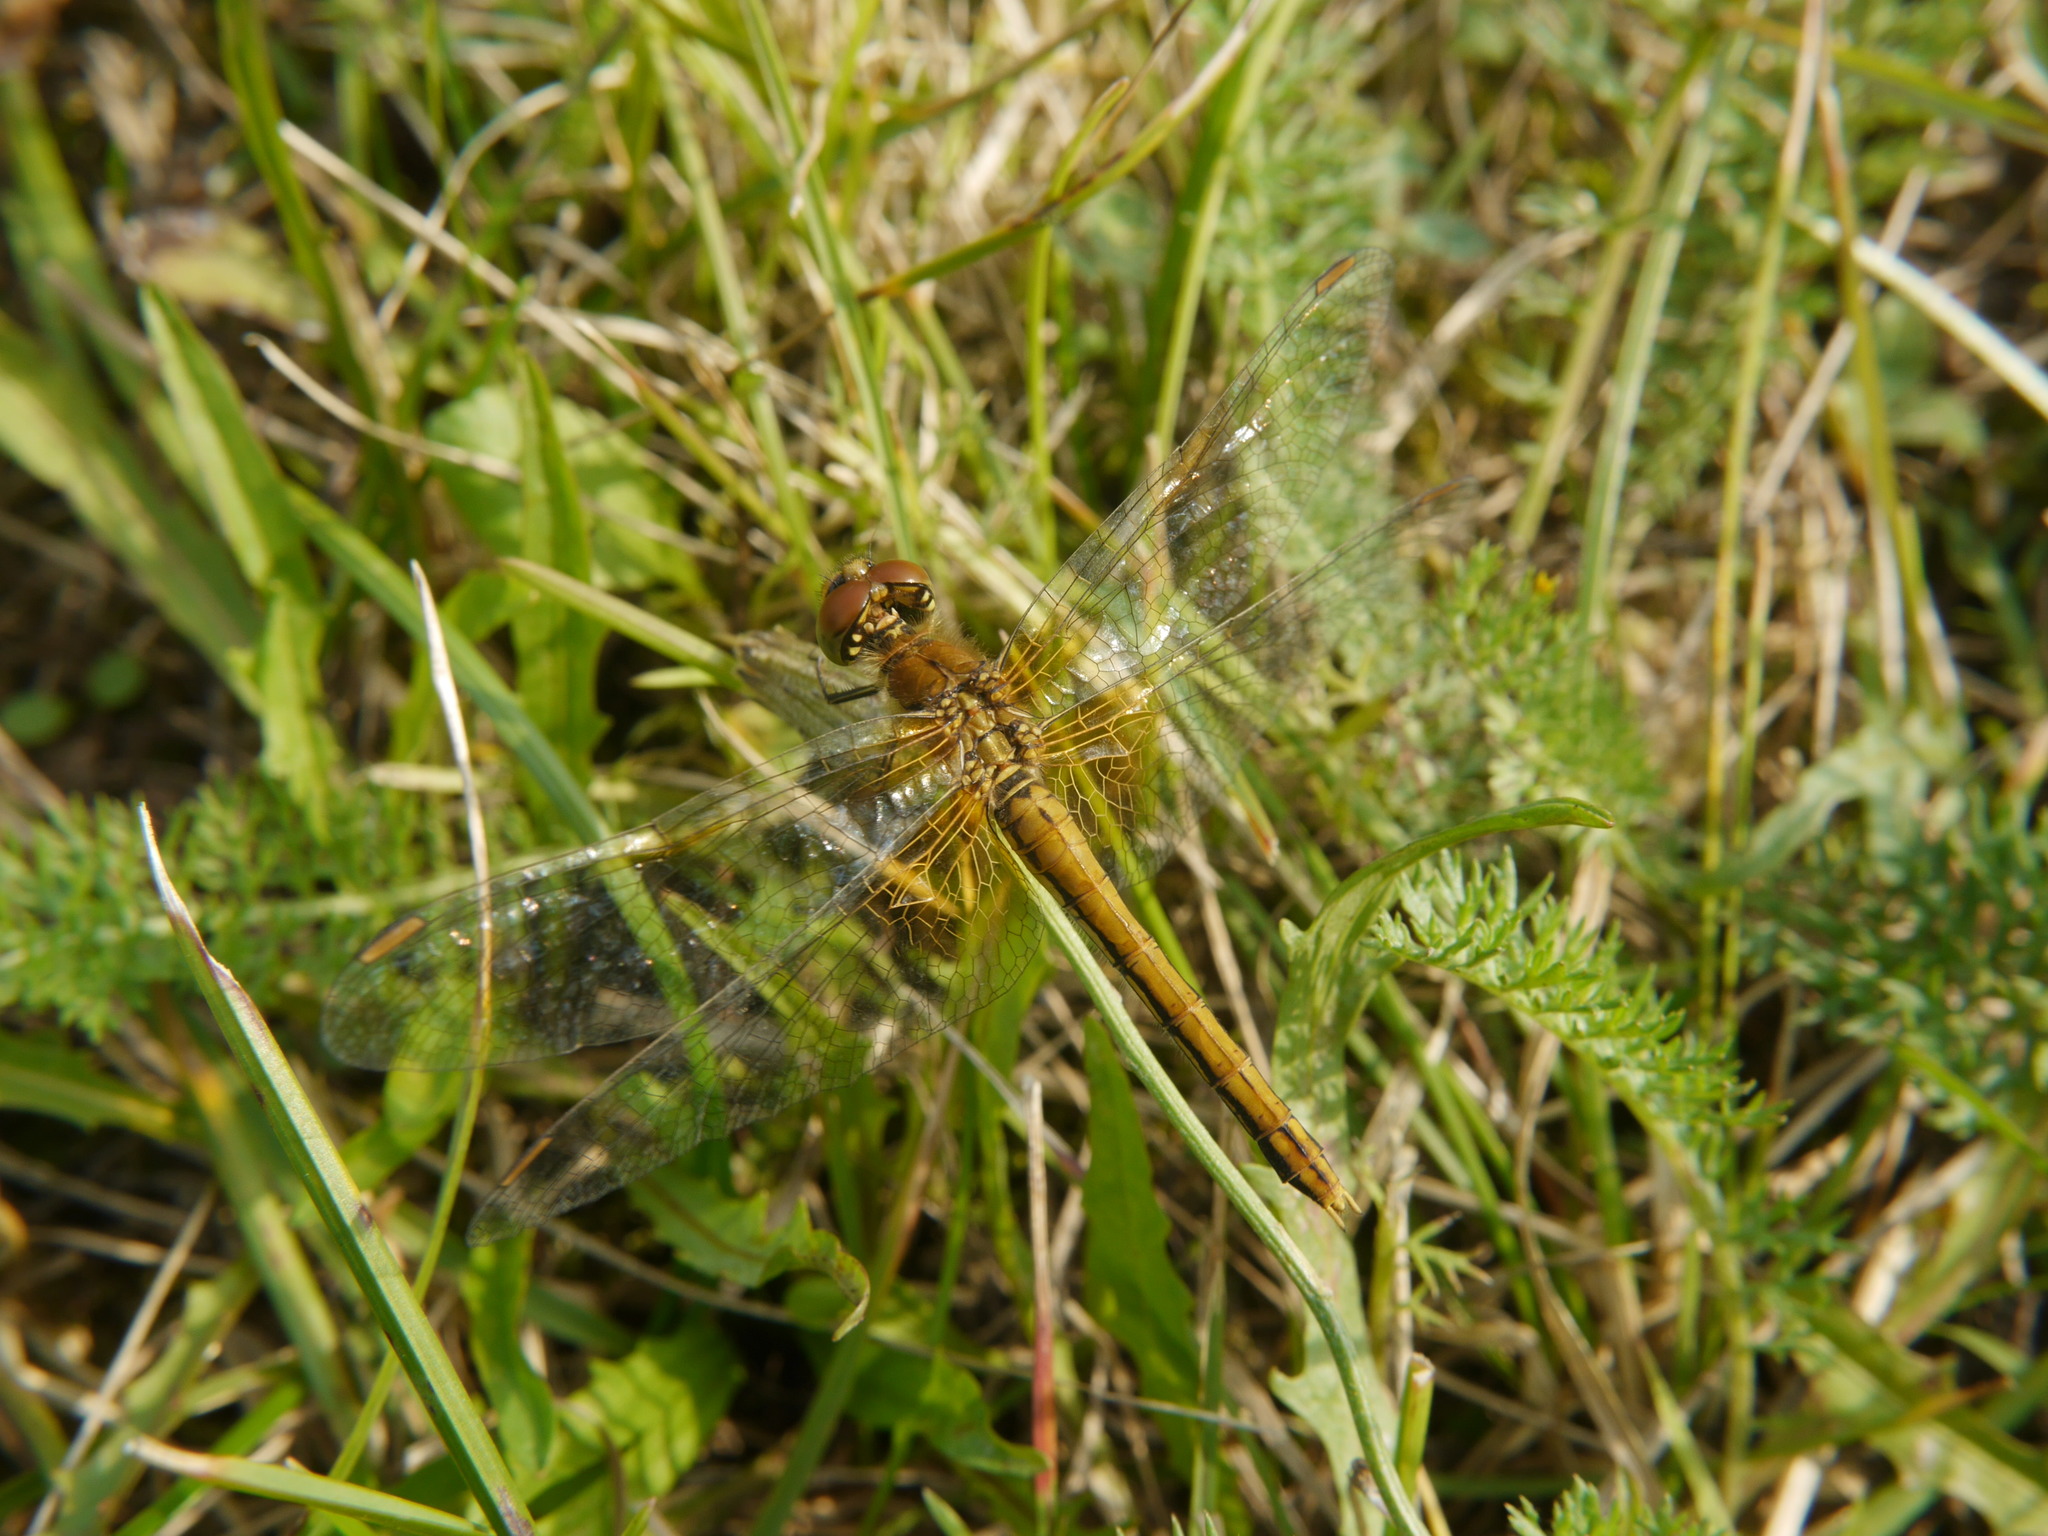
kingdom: Animalia
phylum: Arthropoda
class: Insecta
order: Odonata
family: Libellulidae
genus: Sympetrum
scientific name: Sympetrum flaveolum
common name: Yellow-winged darter
